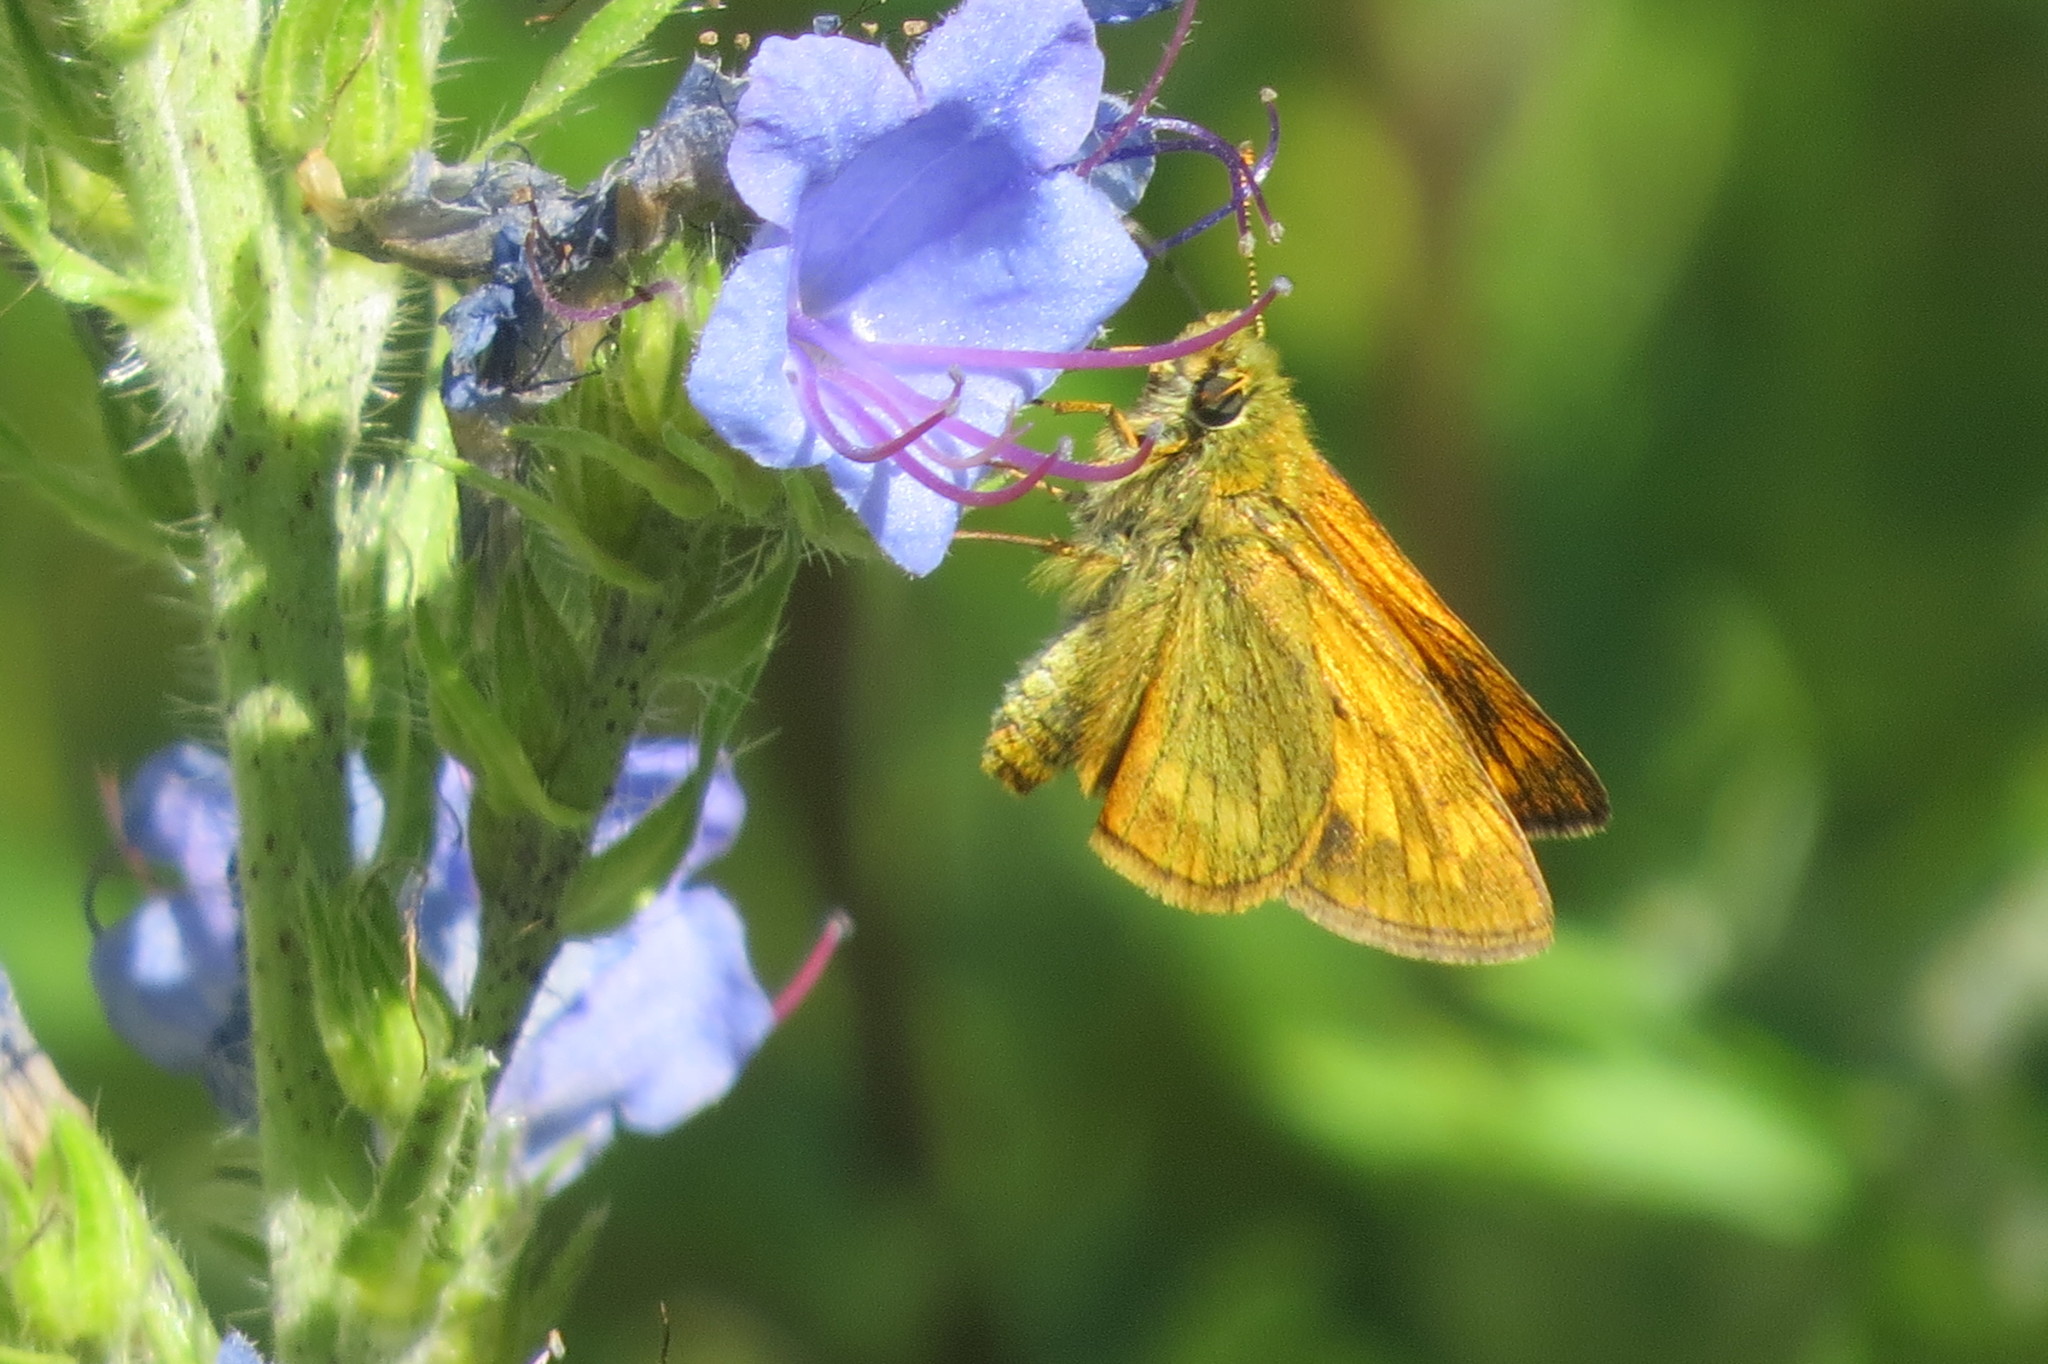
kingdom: Animalia
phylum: Arthropoda
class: Insecta
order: Lepidoptera
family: Hesperiidae
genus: Ochlodes
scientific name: Ochlodes venata
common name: Large skipper
